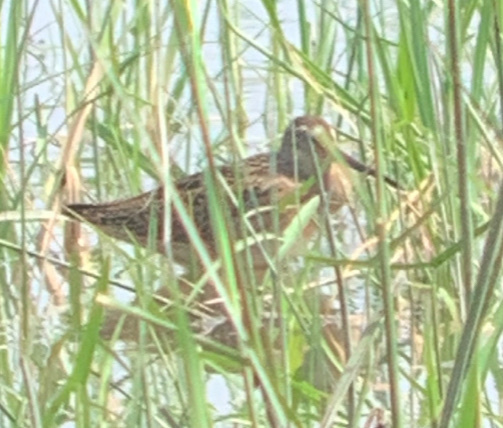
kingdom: Animalia
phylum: Chordata
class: Aves
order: Charadriiformes
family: Scolopacidae
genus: Limnodromus
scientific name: Limnodromus griseus
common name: Short-billed dowitcher
